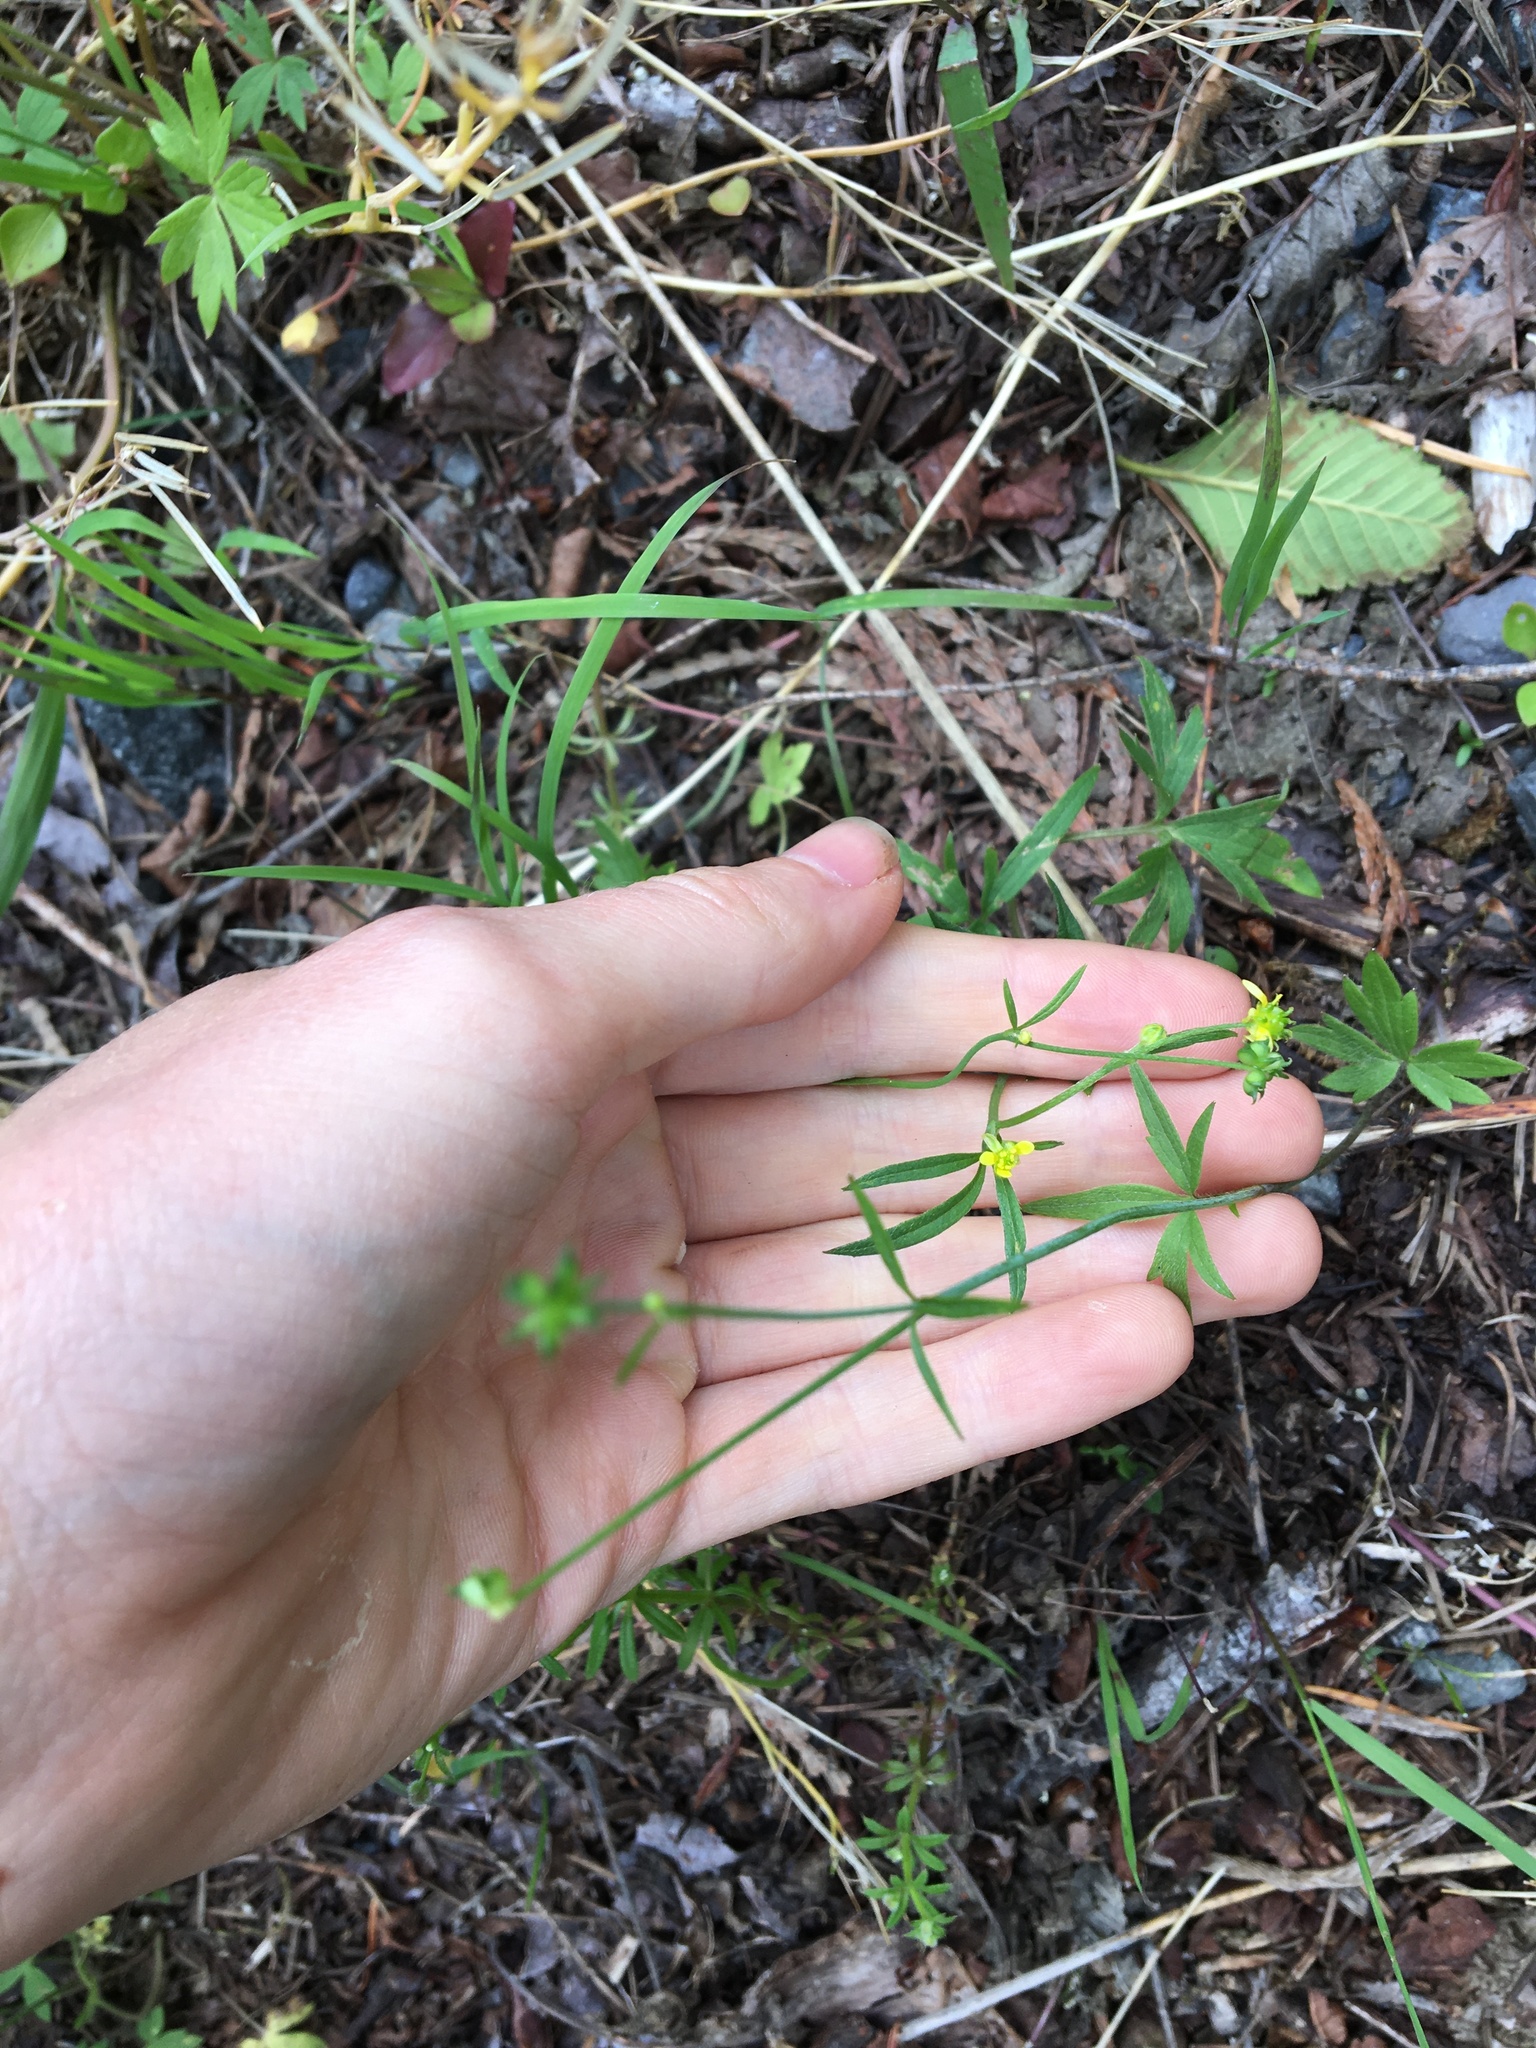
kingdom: Plantae
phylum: Tracheophyta
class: Magnoliopsida
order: Ranunculales
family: Ranunculaceae
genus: Ranunculus
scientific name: Ranunculus uncinatus
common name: Little buttercup
